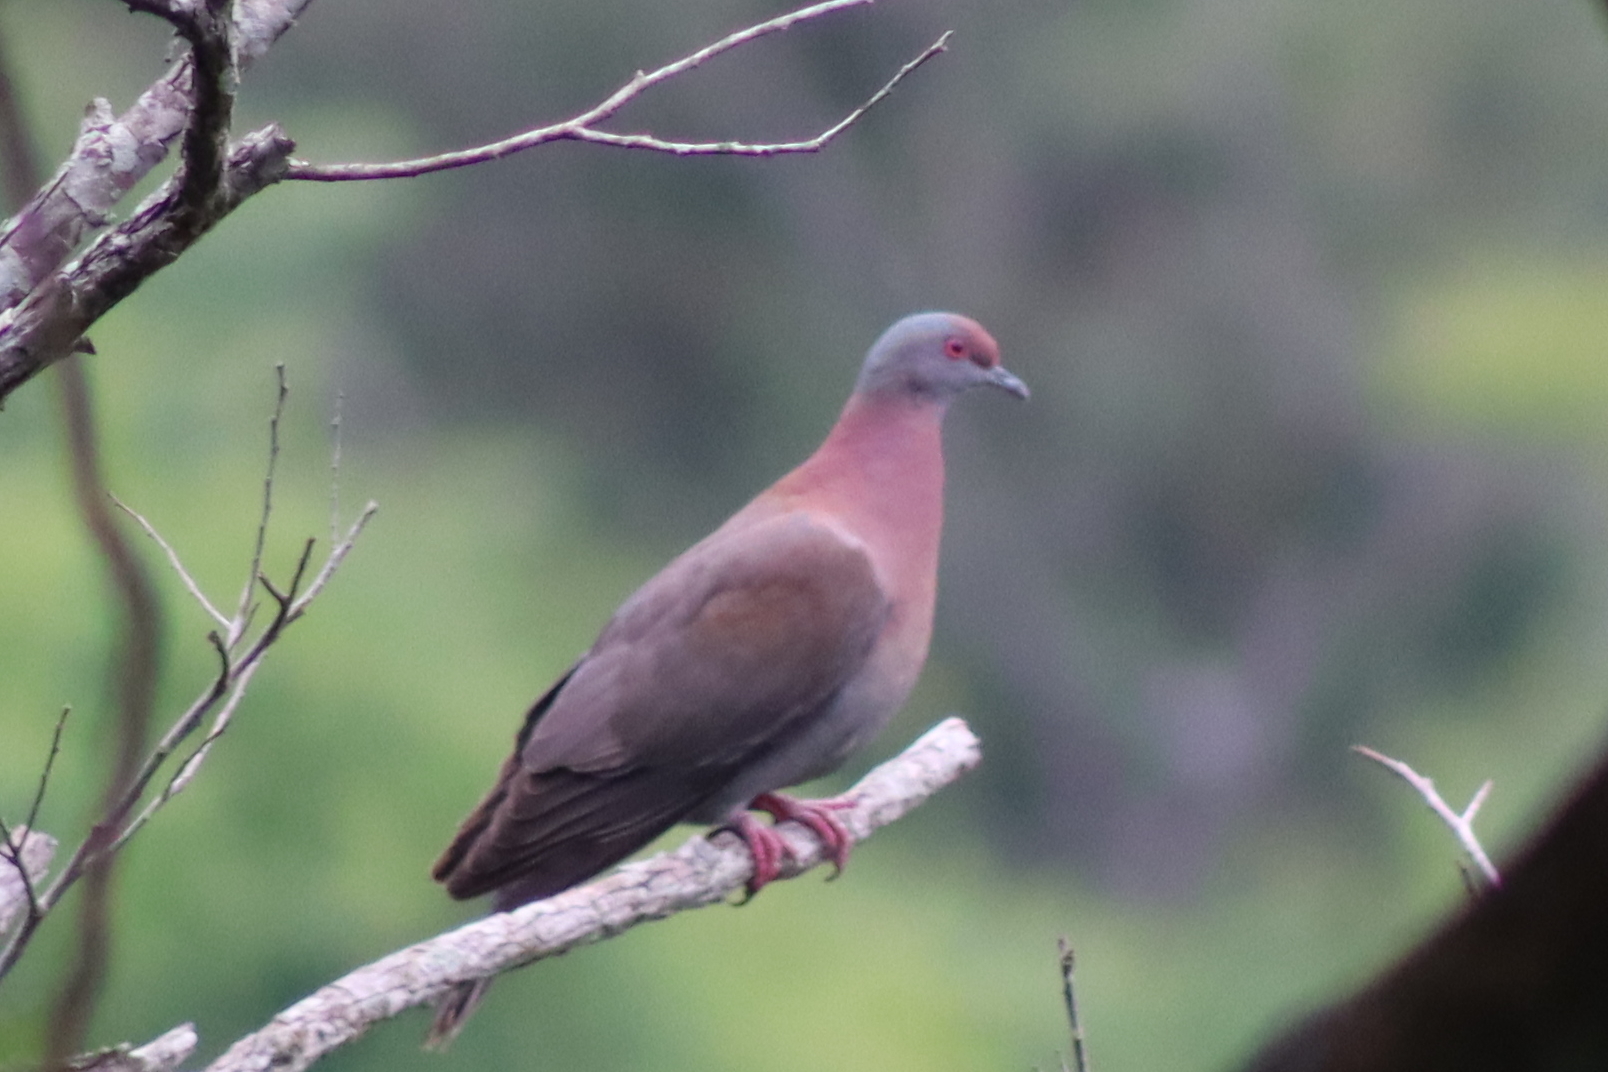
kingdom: Animalia
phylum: Chordata
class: Aves
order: Columbiformes
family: Columbidae
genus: Patagioenas
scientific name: Patagioenas cayennensis
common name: Pale-vented pigeon
